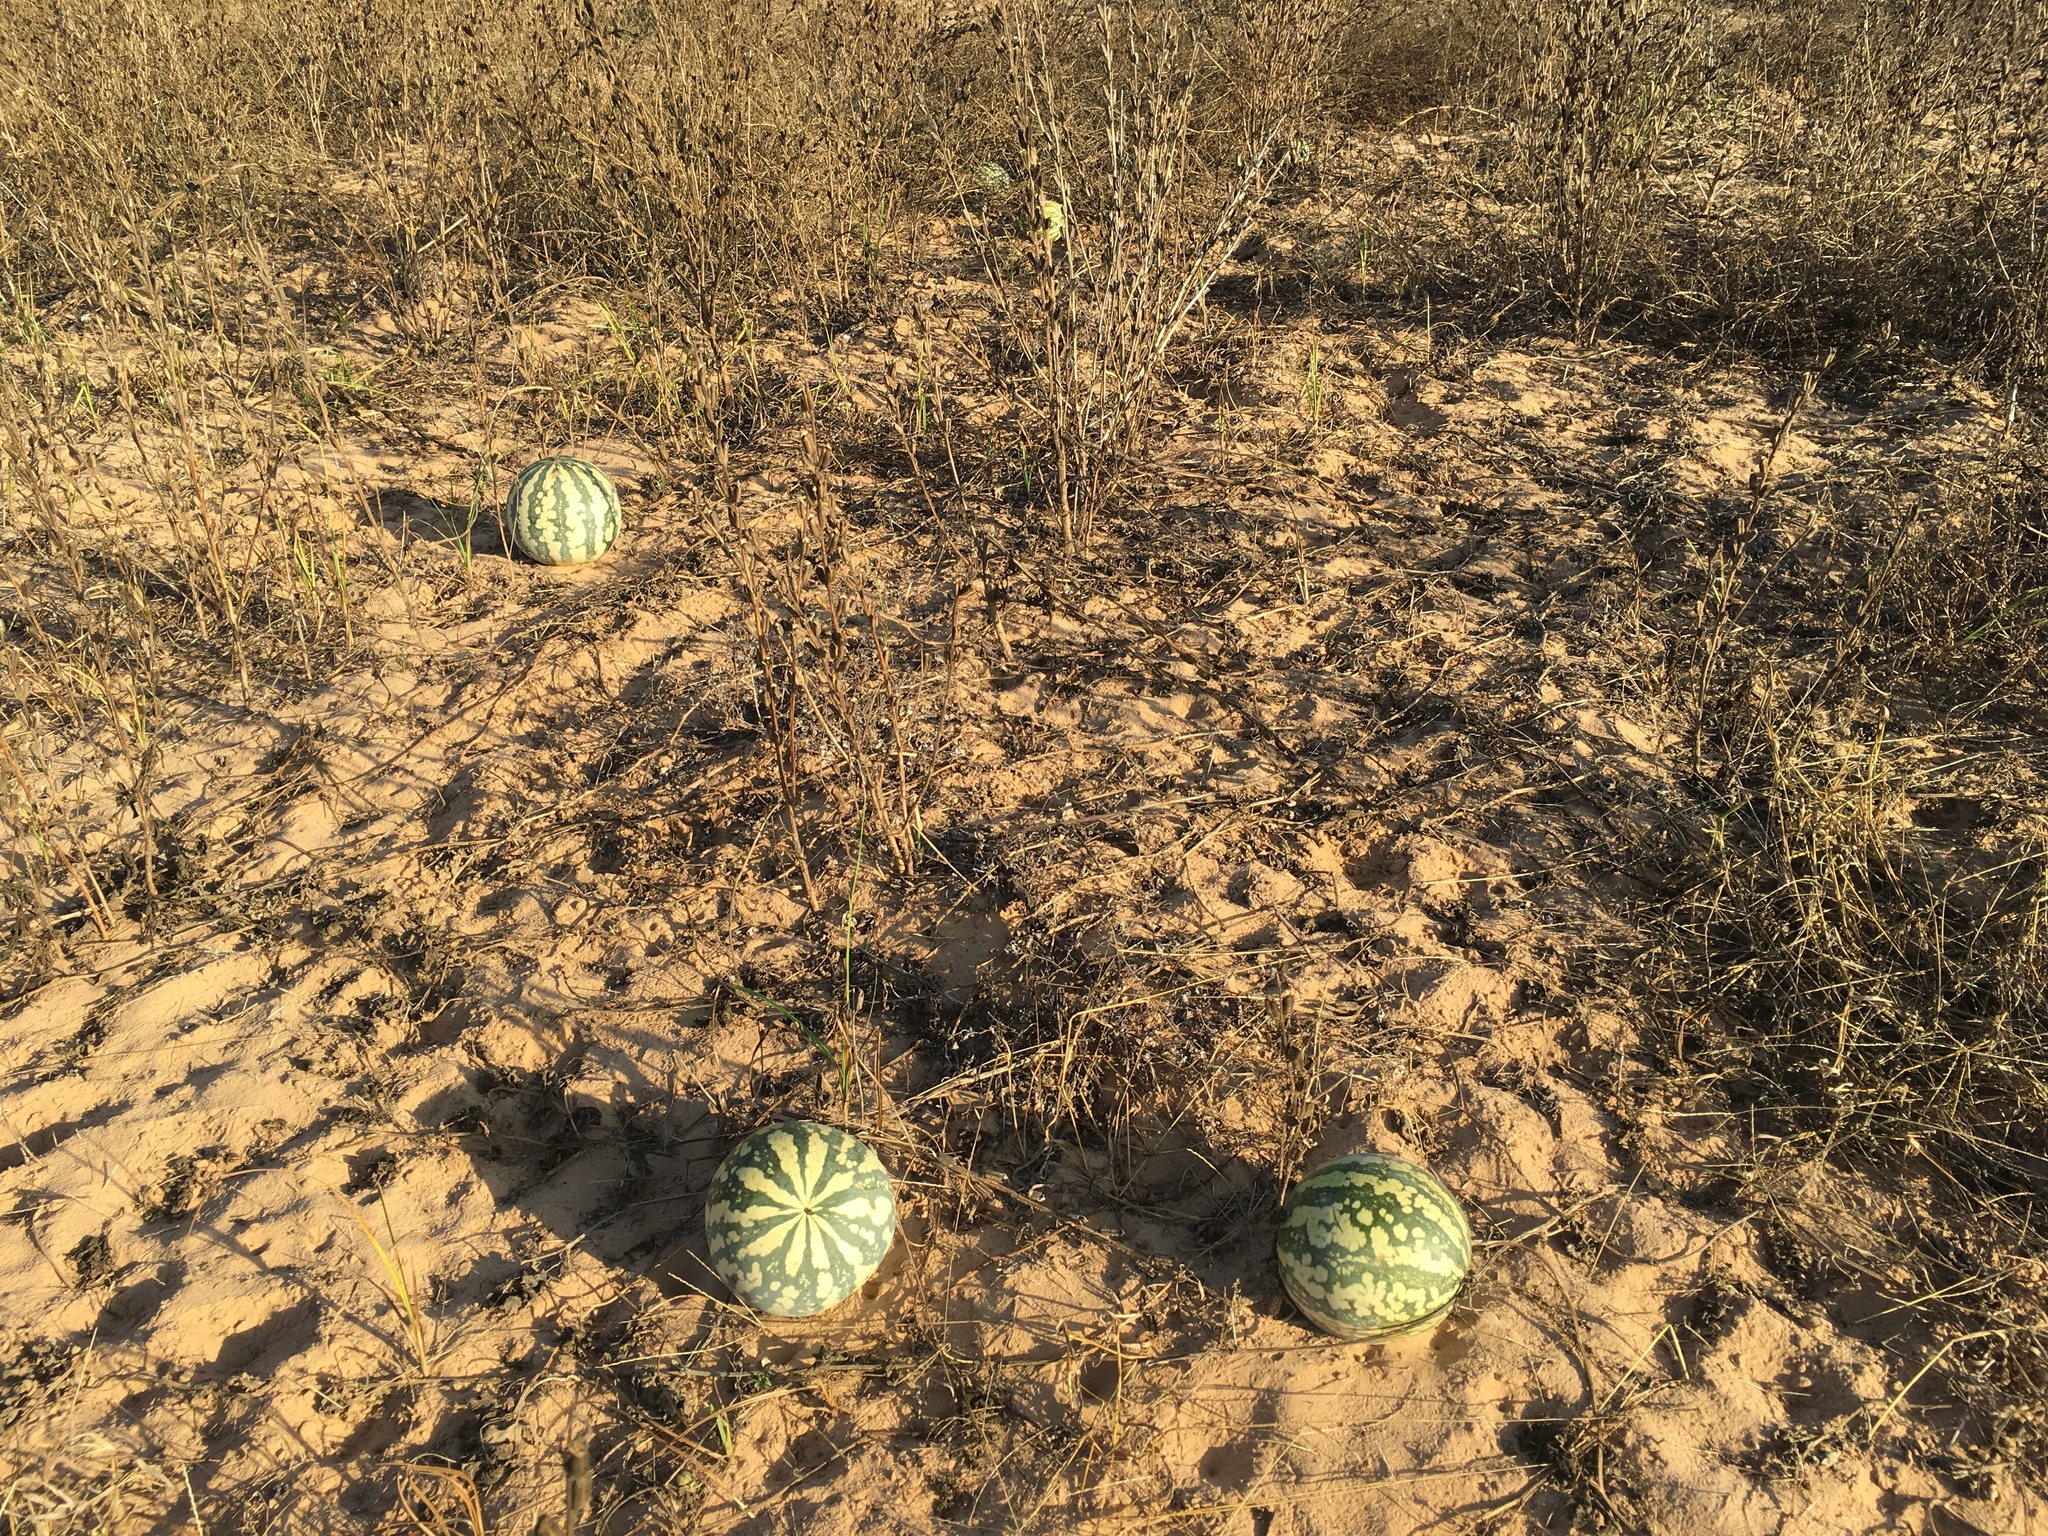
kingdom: Plantae
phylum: Tracheophyta
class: Magnoliopsida
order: Cucurbitales
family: Cucurbitaceae
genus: Citrullus
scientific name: Citrullus amarus
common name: Fodder-melon
